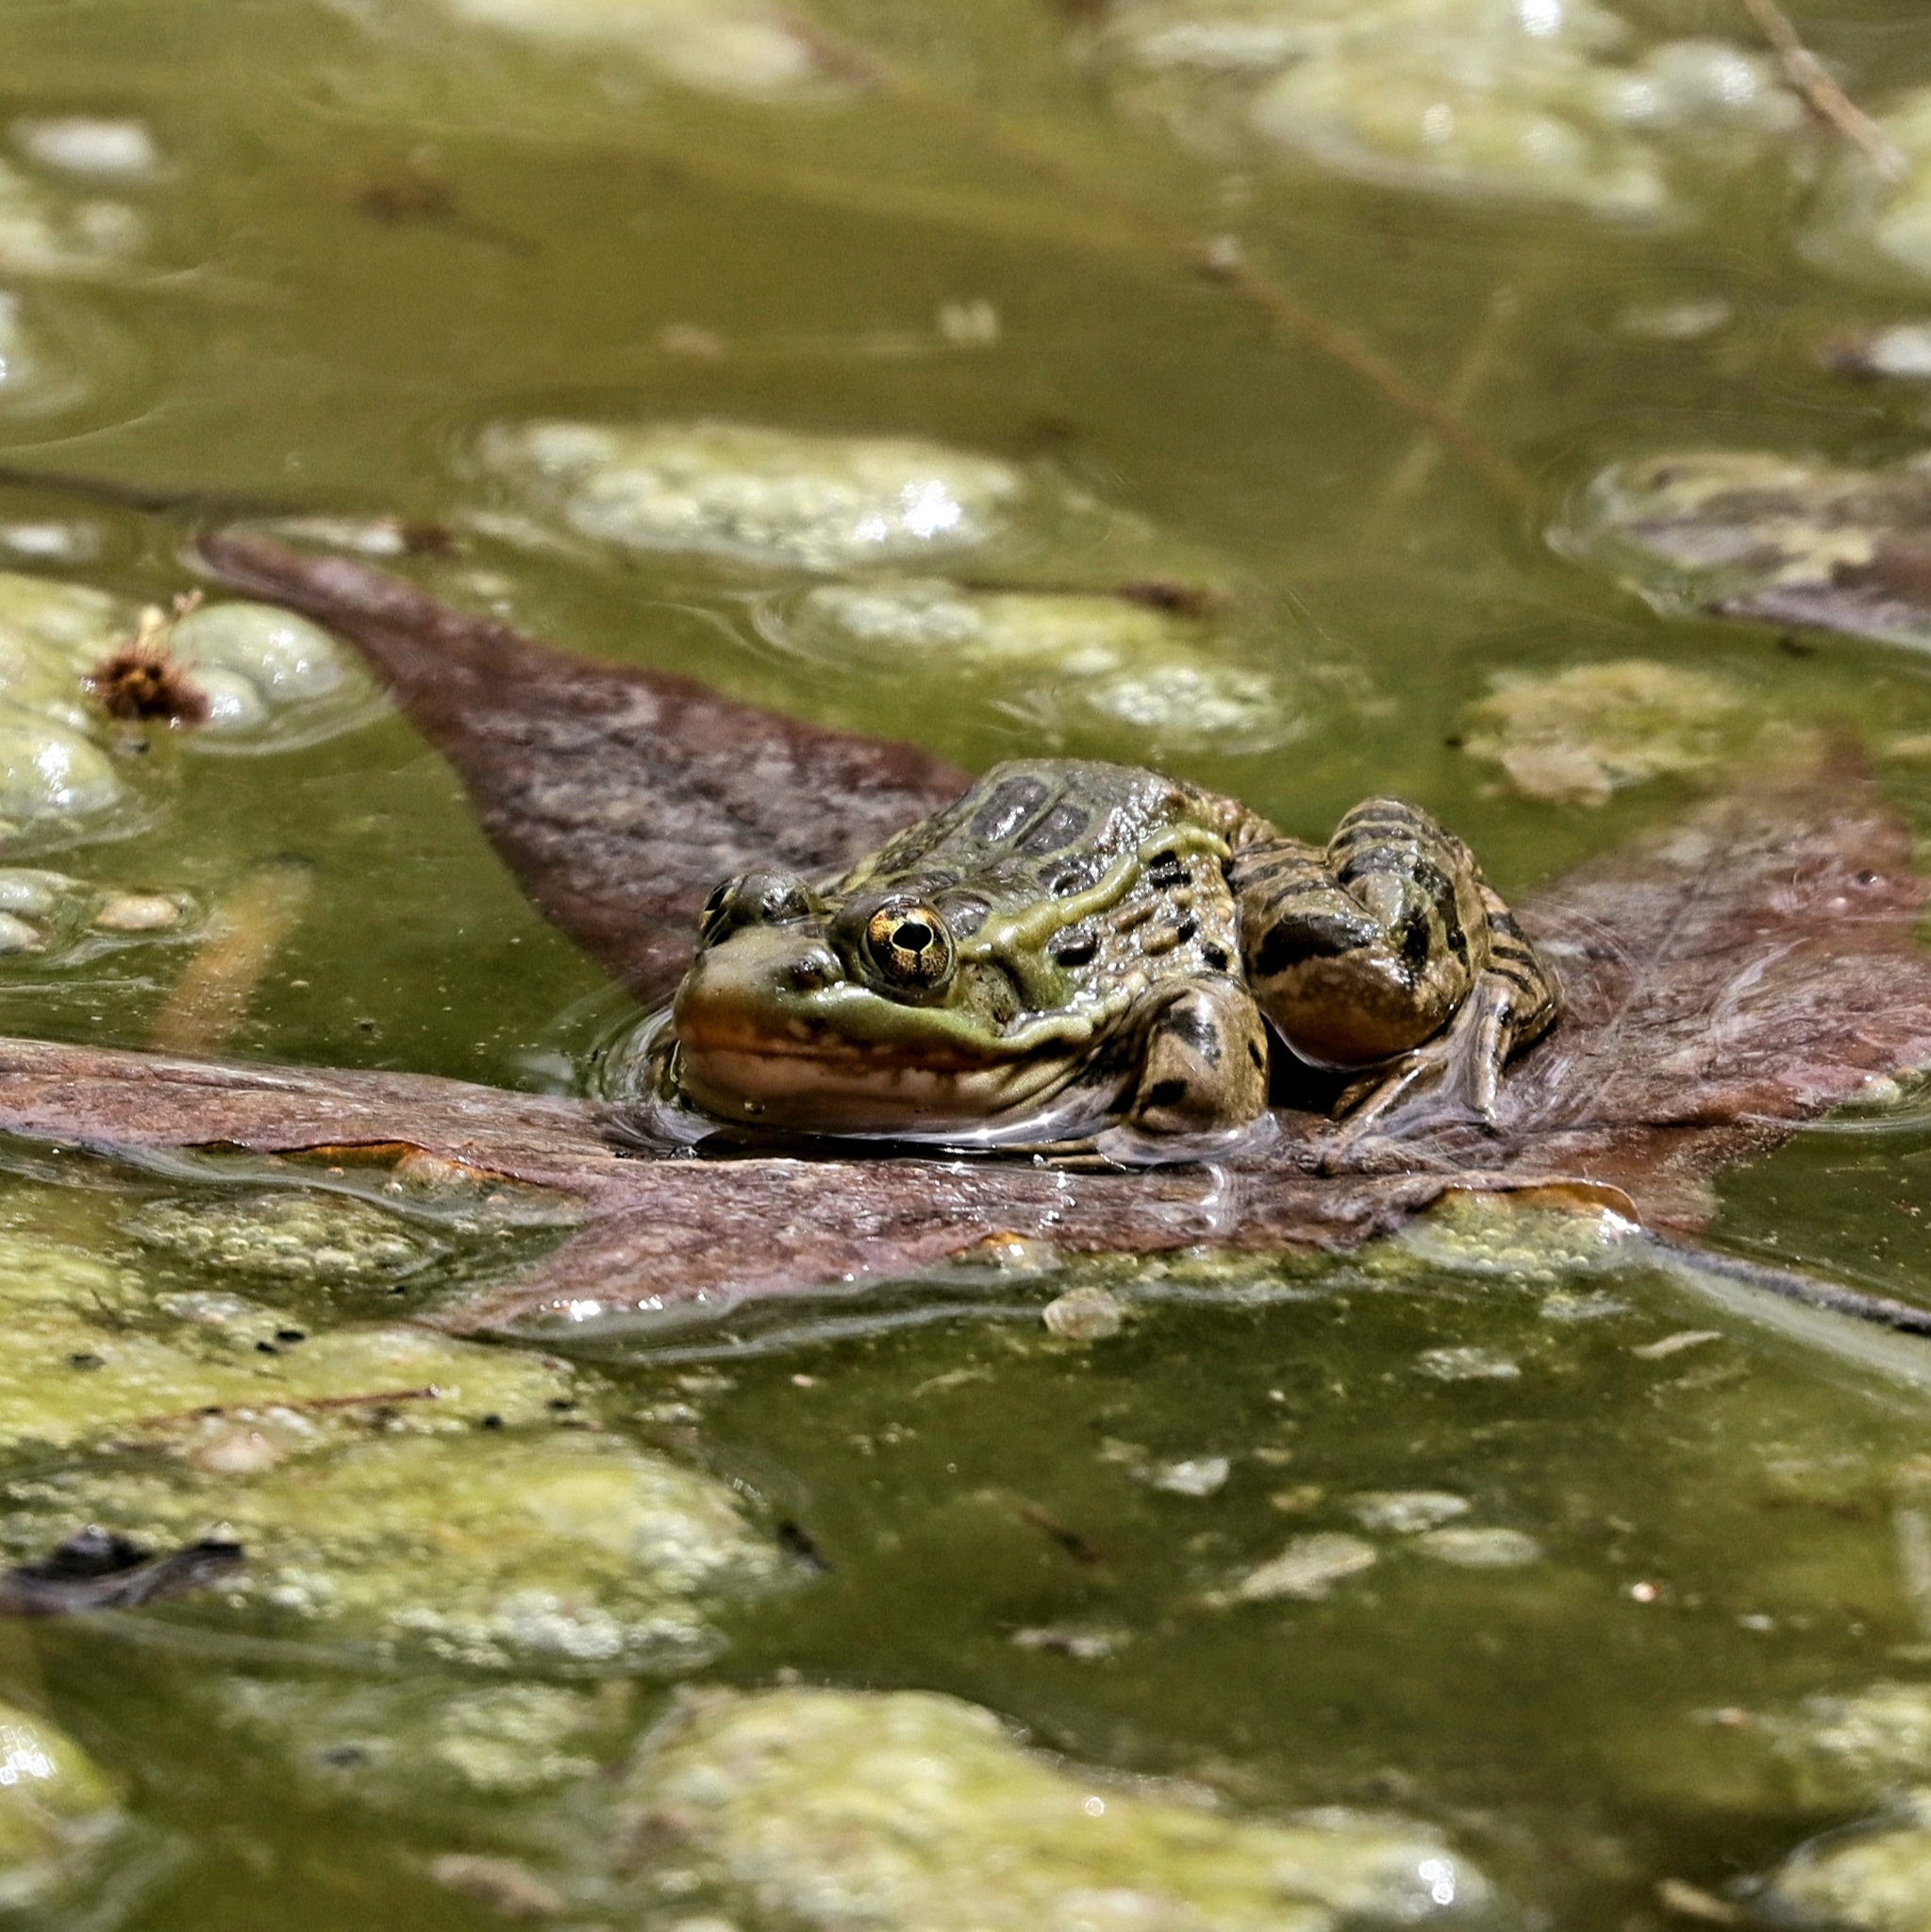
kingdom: Animalia
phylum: Chordata
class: Amphibia
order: Anura
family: Ranidae
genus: Lithobates
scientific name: Lithobates chiricahuensis
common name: Chiricahua leopard frog
